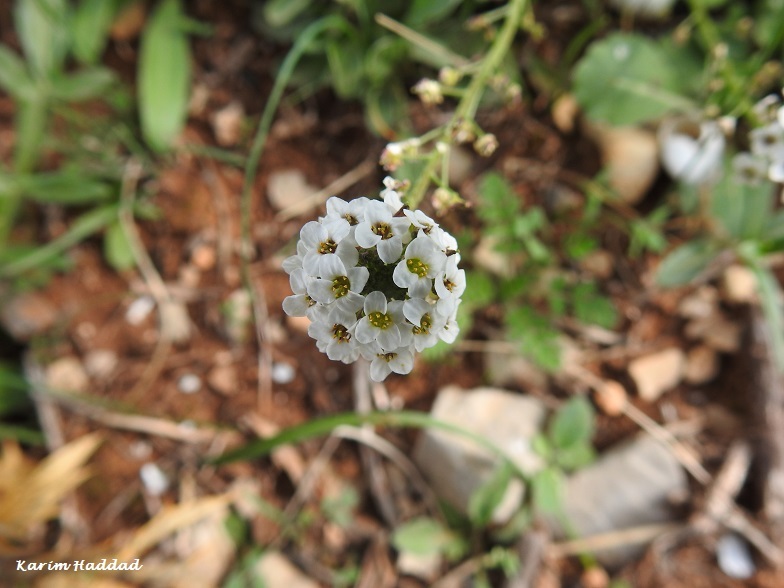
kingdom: Plantae
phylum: Tracheophyta
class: Magnoliopsida
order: Brassicales
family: Brassicaceae
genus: Lobularia
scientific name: Lobularia maritima
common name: Sweet alison
